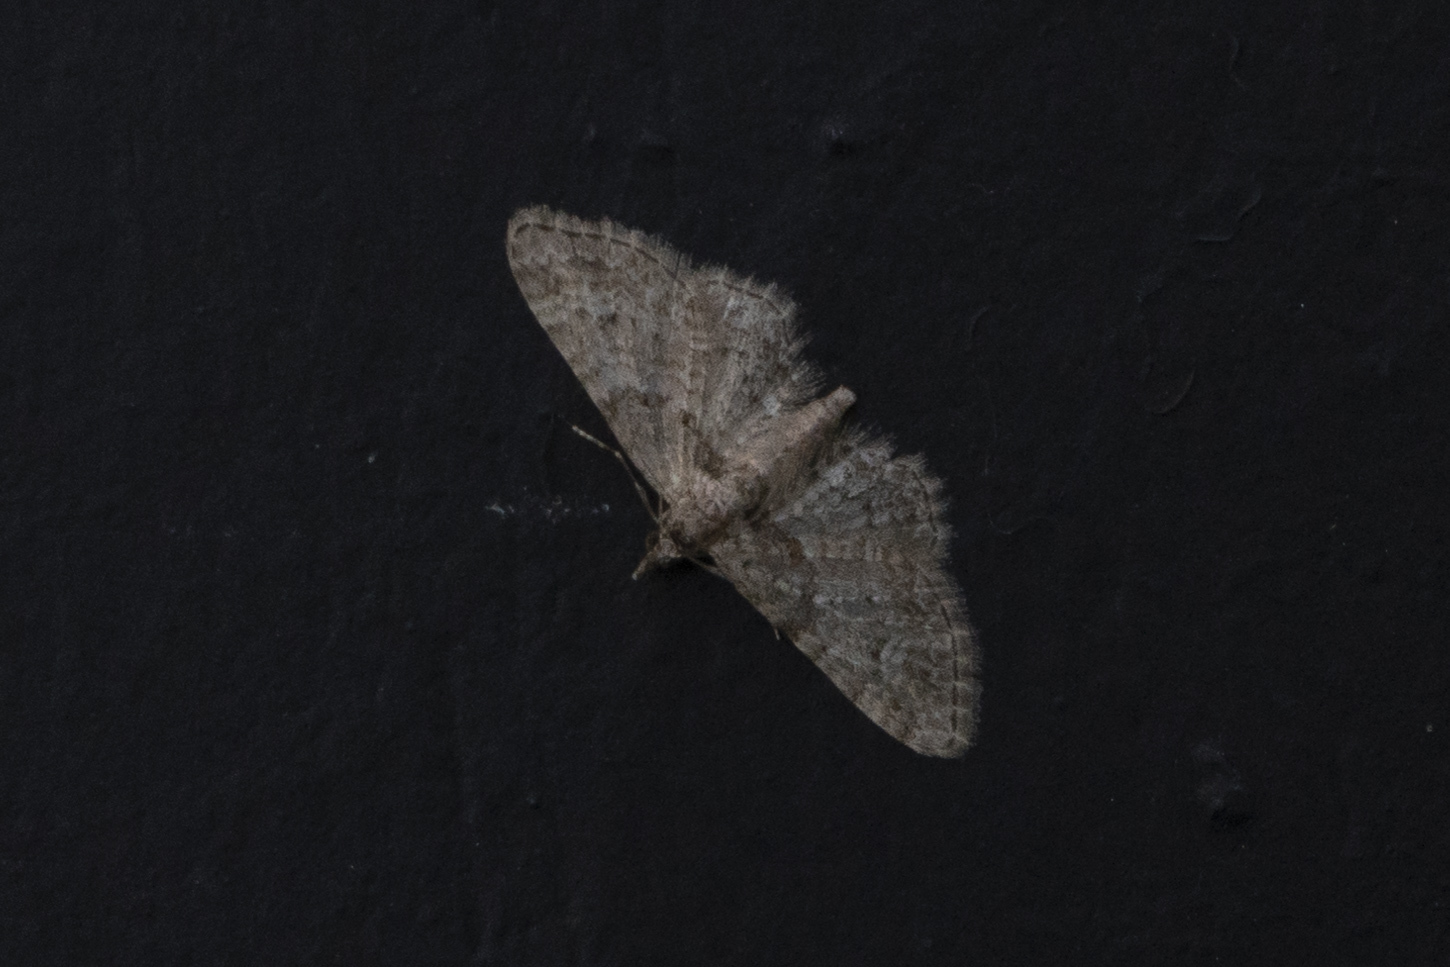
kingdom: Animalia
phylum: Arthropoda
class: Insecta
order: Lepidoptera
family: Geometridae
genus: Gymnoscelis
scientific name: Gymnoscelis rufifasciata
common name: Double-striped pug
